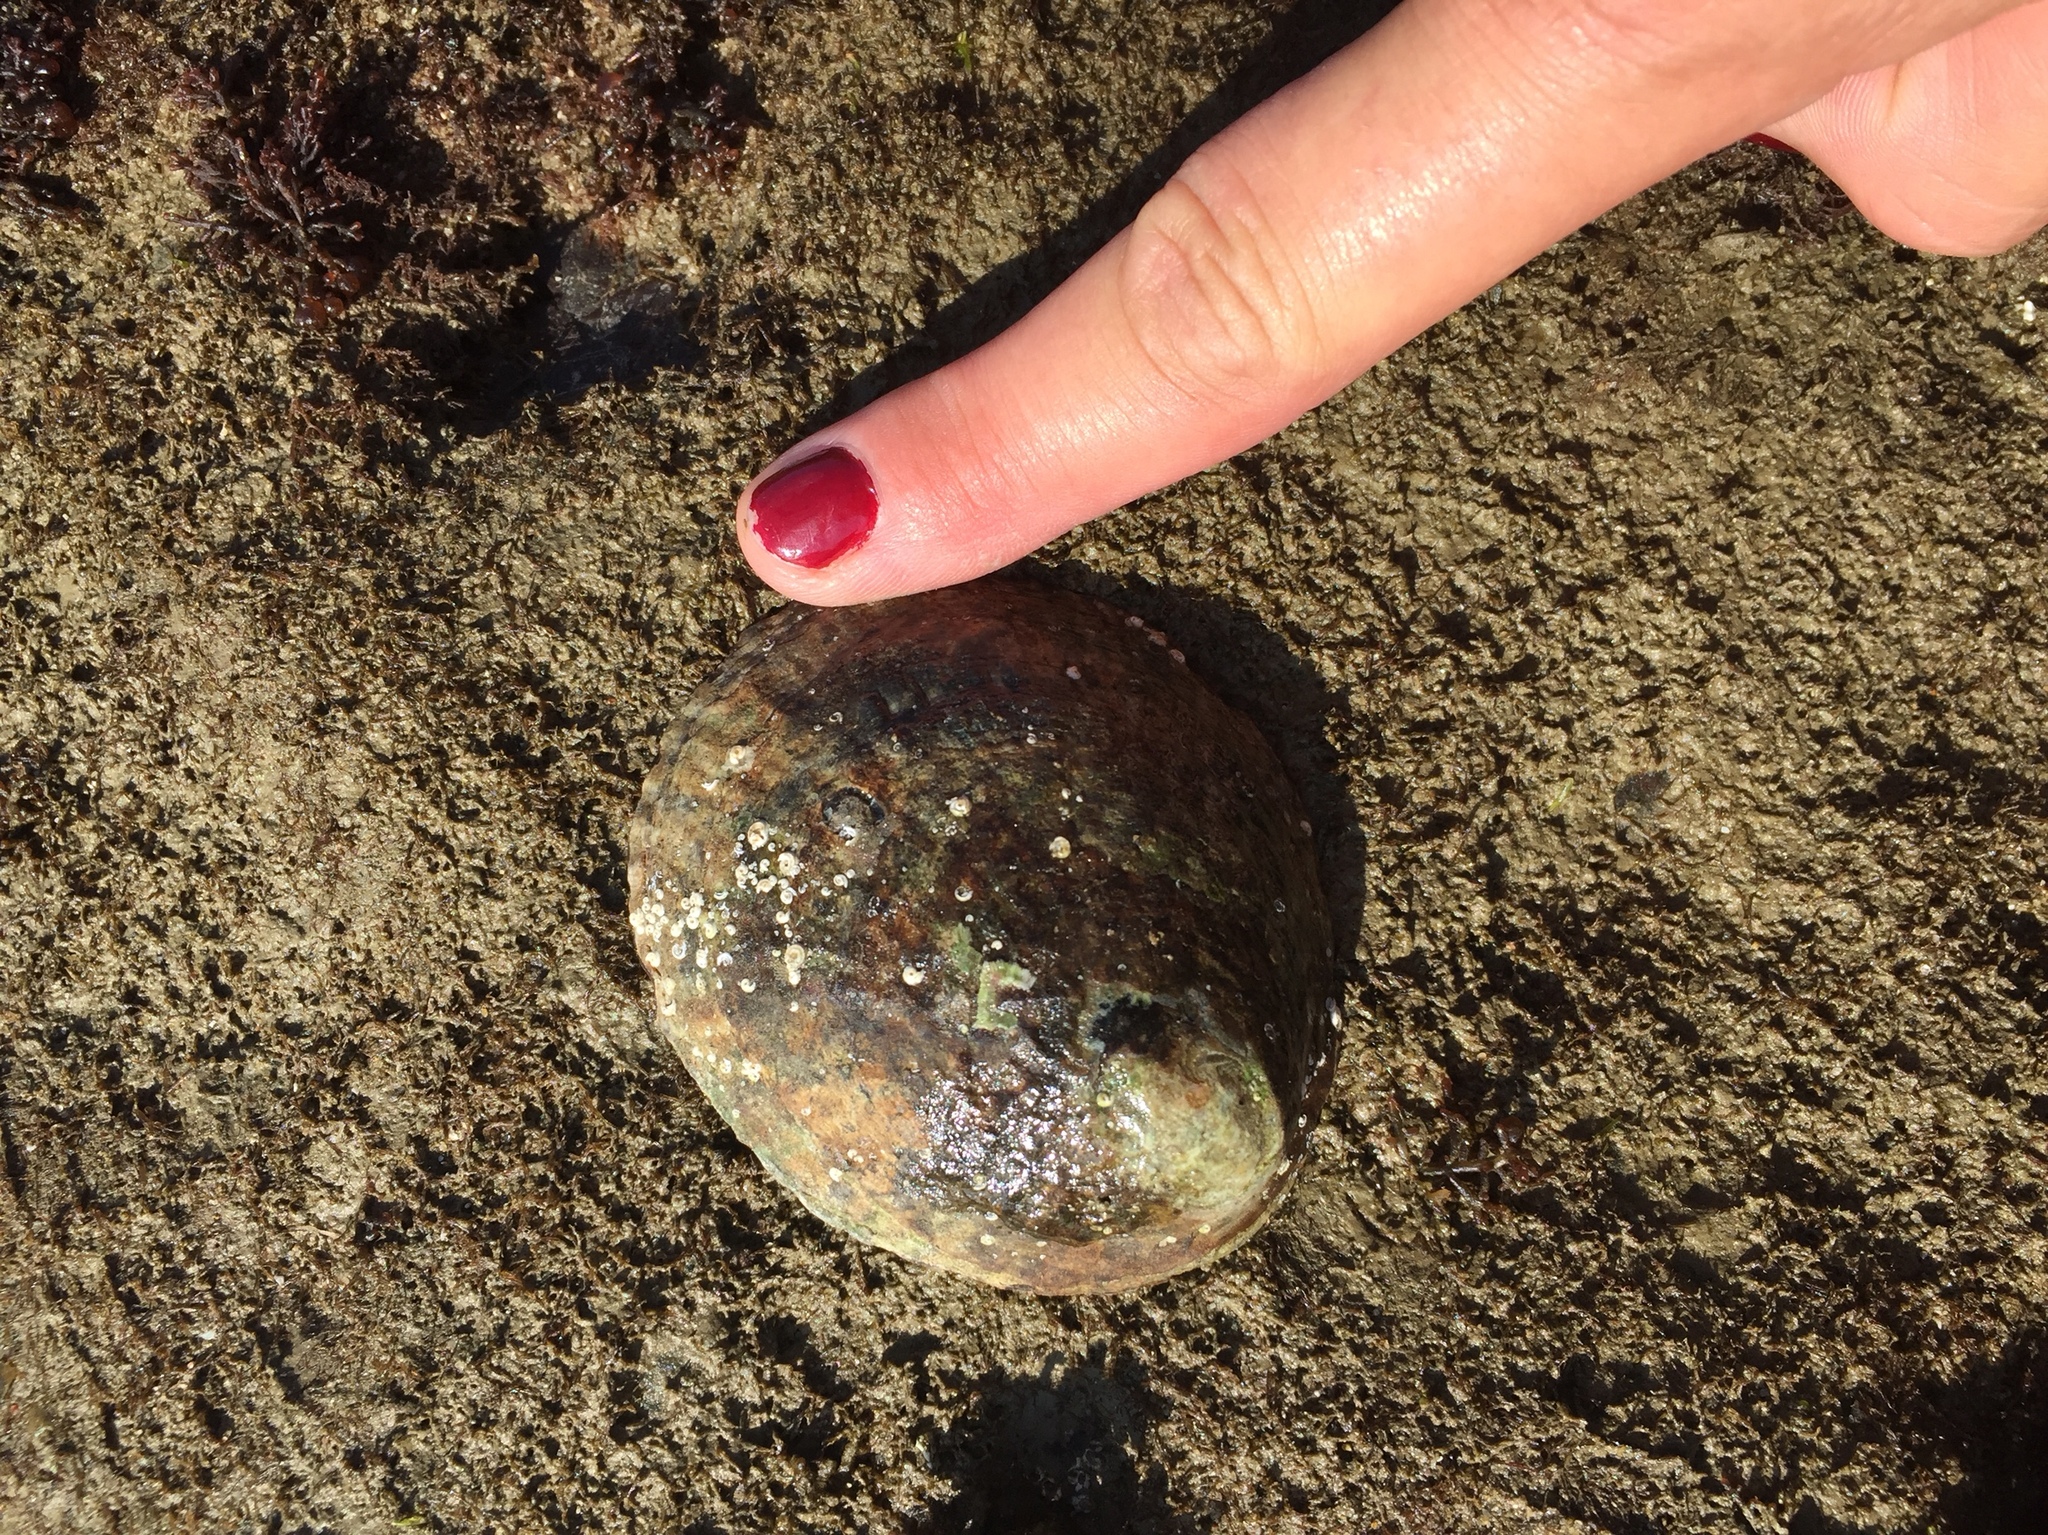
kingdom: Animalia
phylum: Mollusca
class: Gastropoda
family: Lottiidae
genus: Lottia
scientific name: Lottia gigantea
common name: Owl limpet
